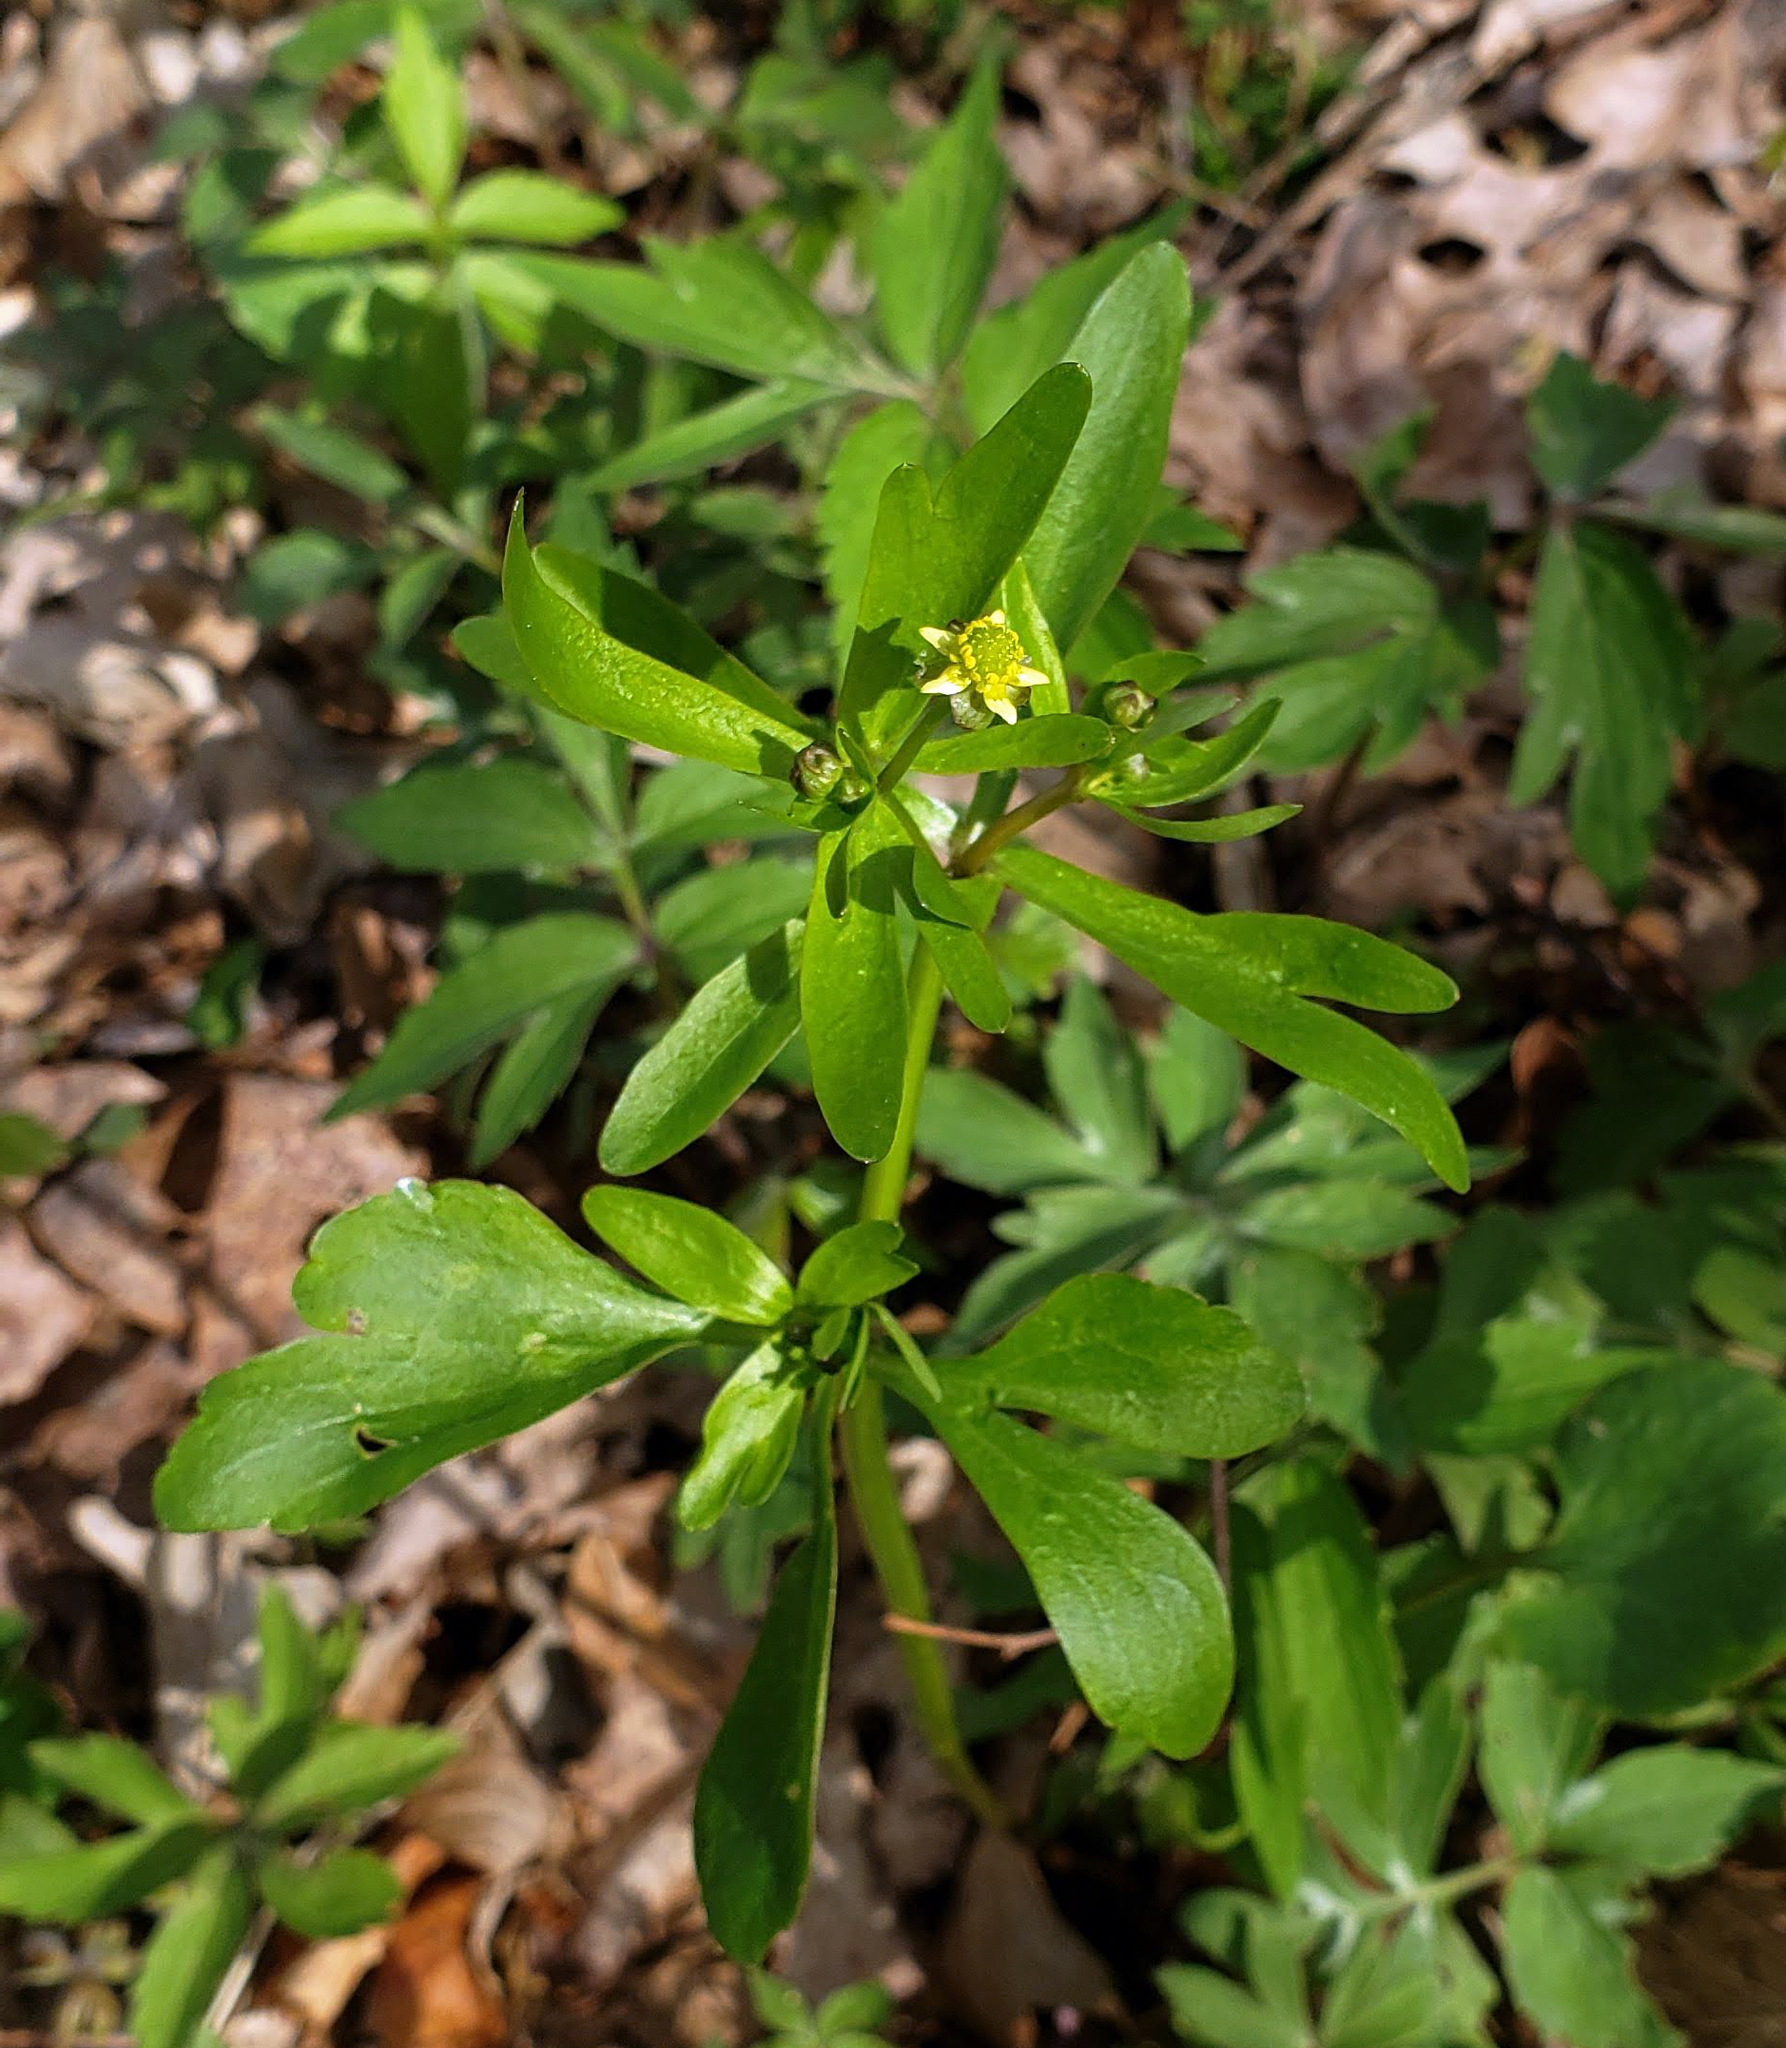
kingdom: Plantae
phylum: Tracheophyta
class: Magnoliopsida
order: Ranunculales
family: Ranunculaceae
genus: Ranunculus
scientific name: Ranunculus abortivus
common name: Early wood buttercup
